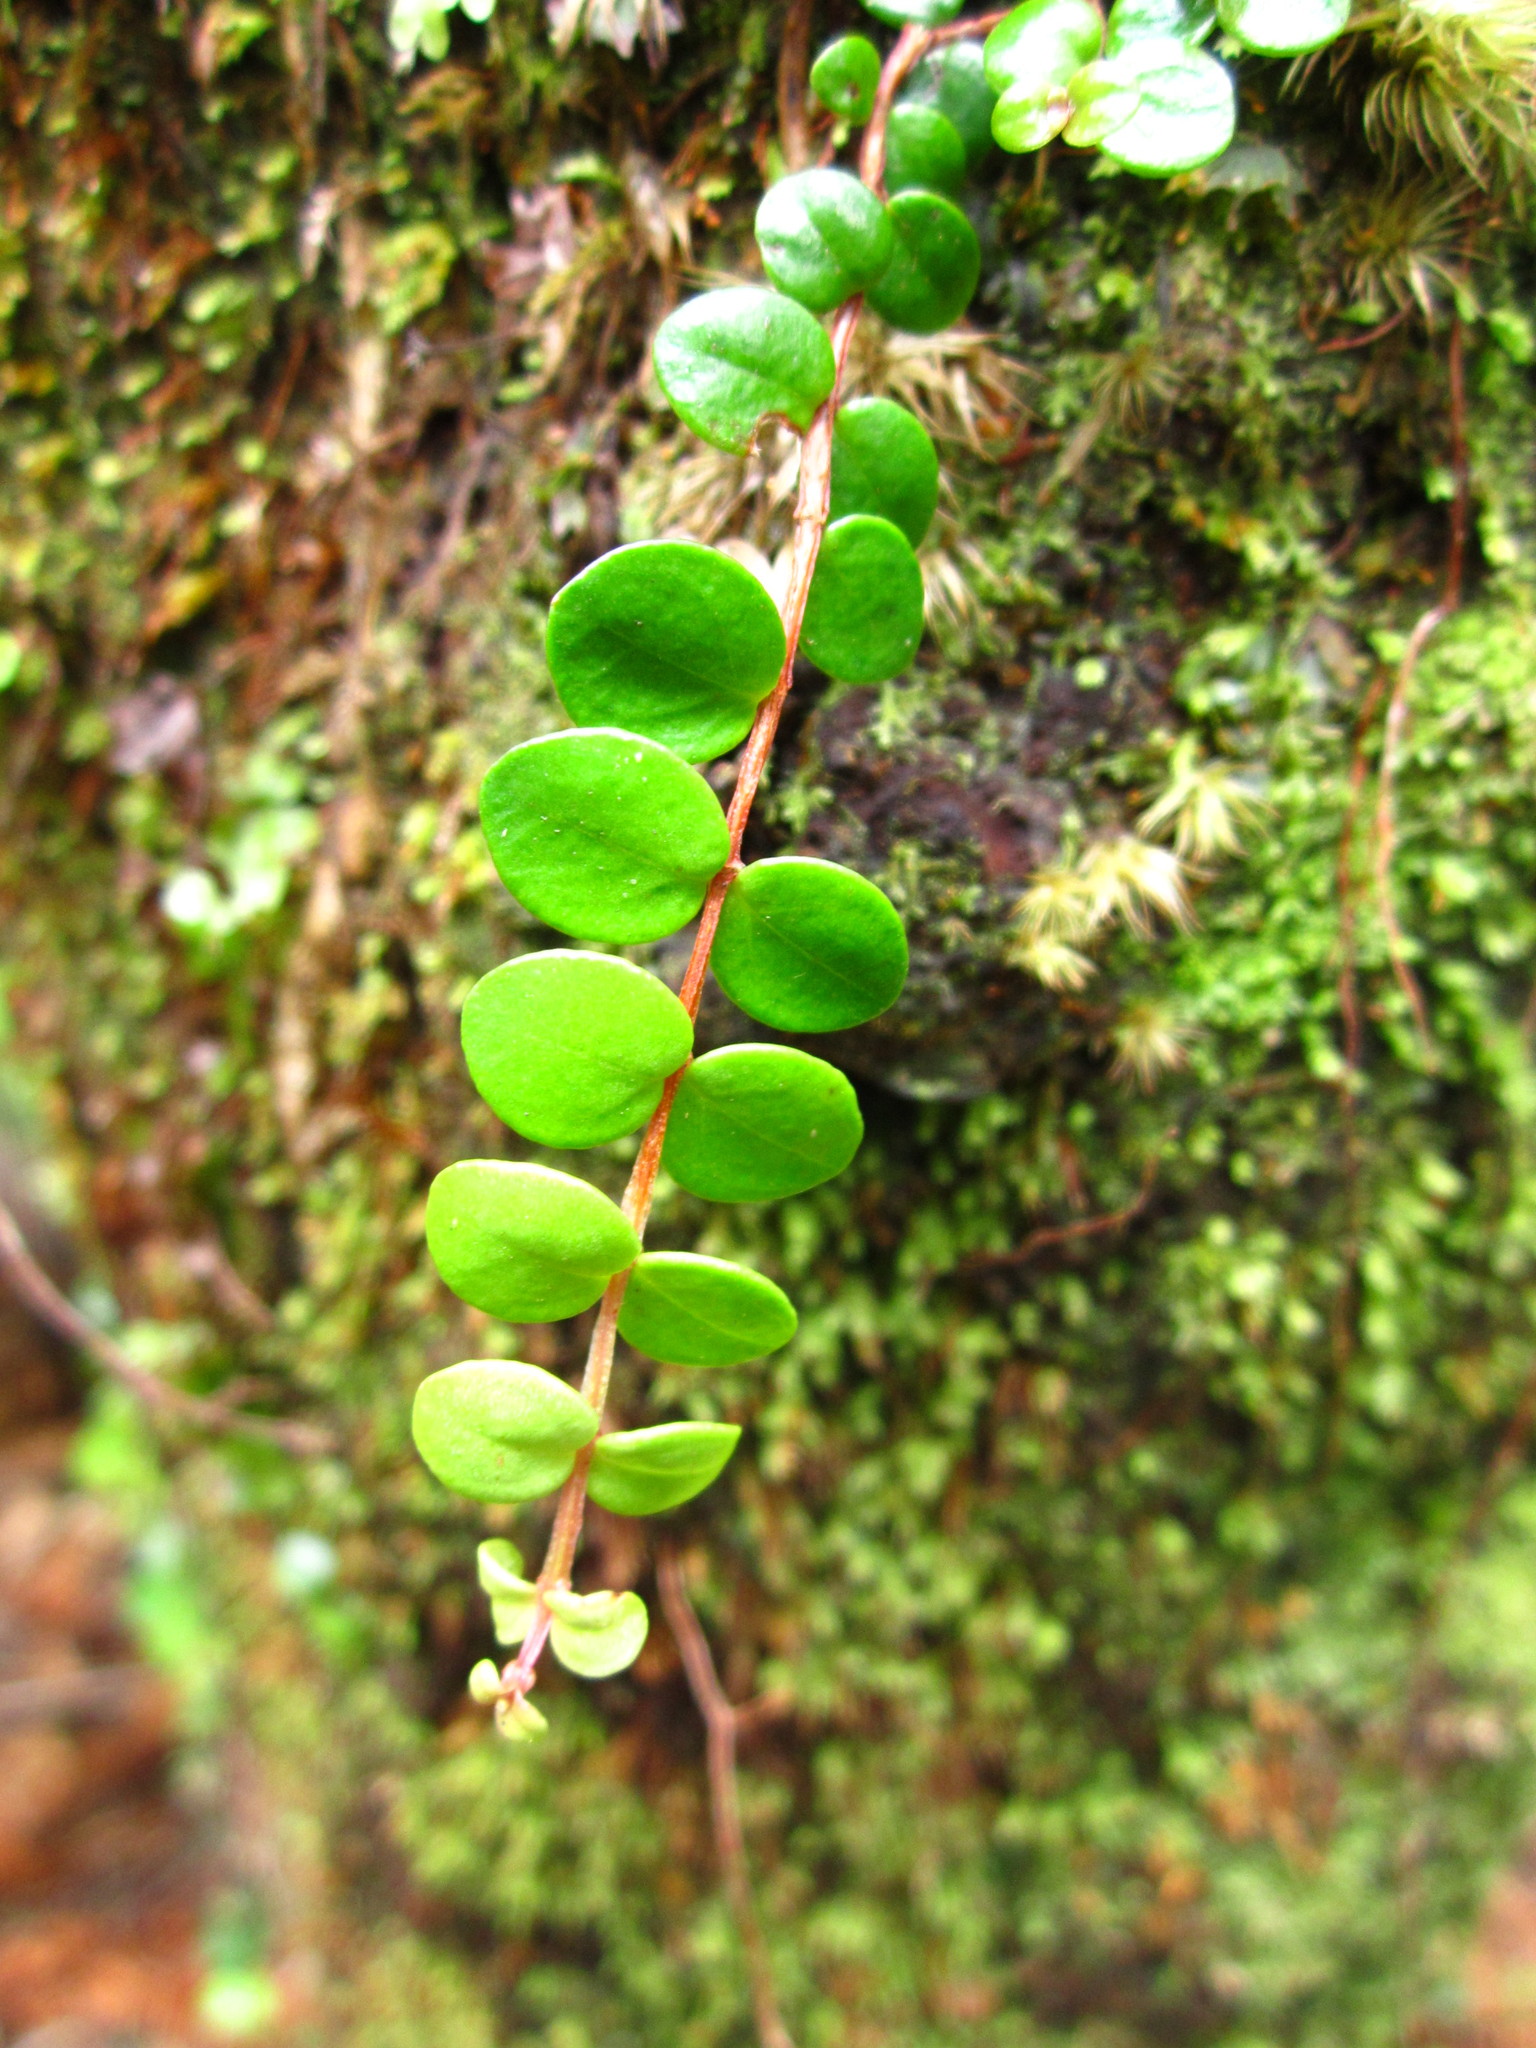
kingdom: Plantae
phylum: Tracheophyta
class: Magnoliopsida
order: Myrtales
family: Myrtaceae
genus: Metrosideros
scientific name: Metrosideros perforata
